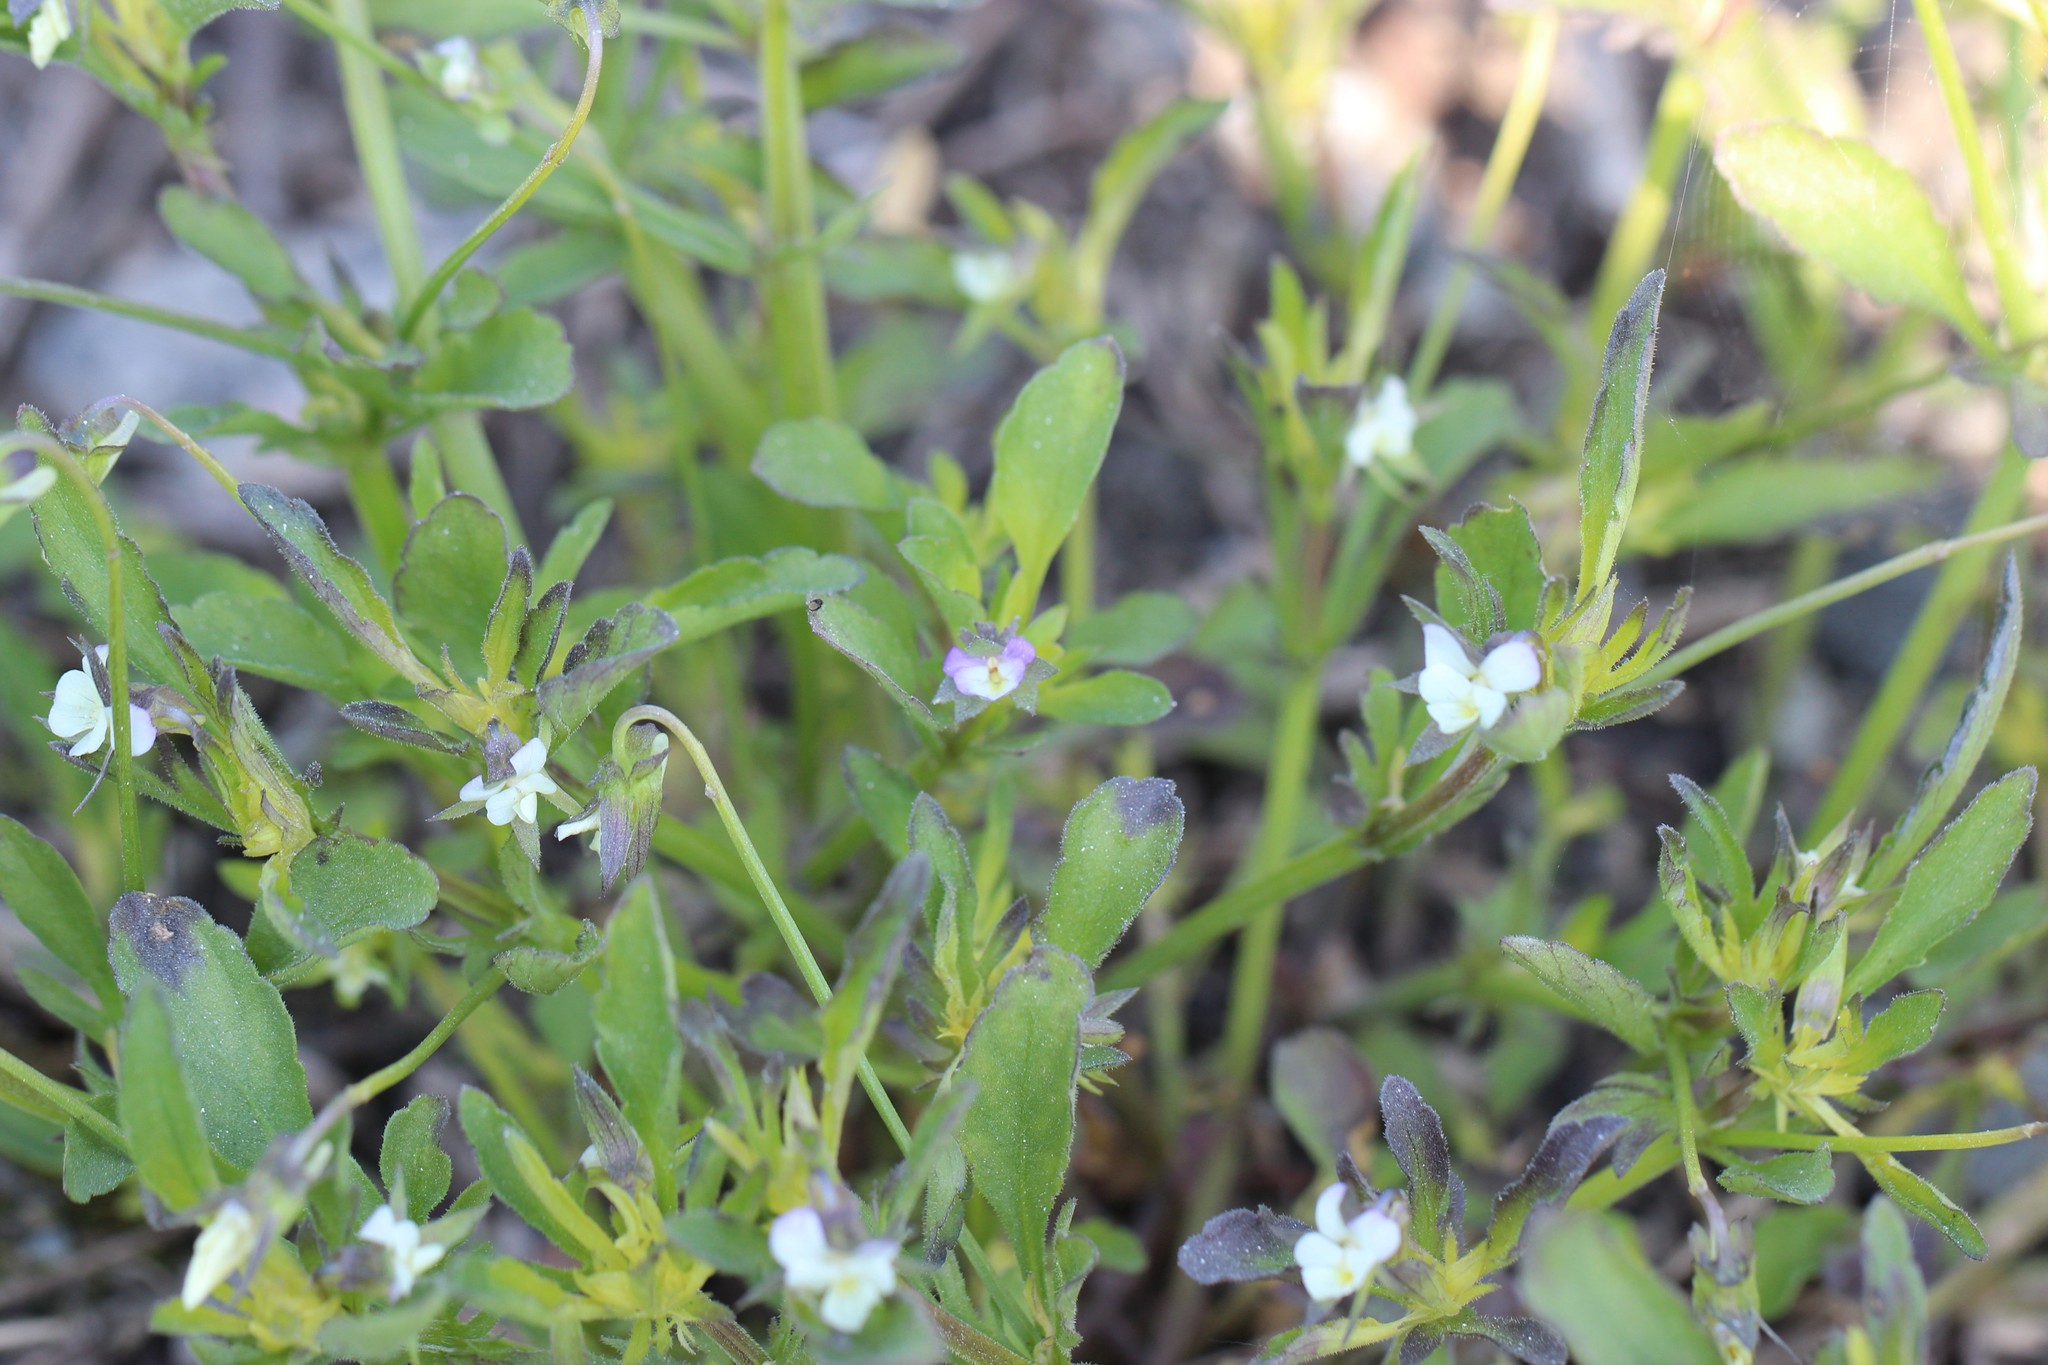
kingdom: Plantae
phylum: Tracheophyta
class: Magnoliopsida
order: Malpighiales
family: Violaceae
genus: Viola
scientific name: Viola arvensis
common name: Field pansy
